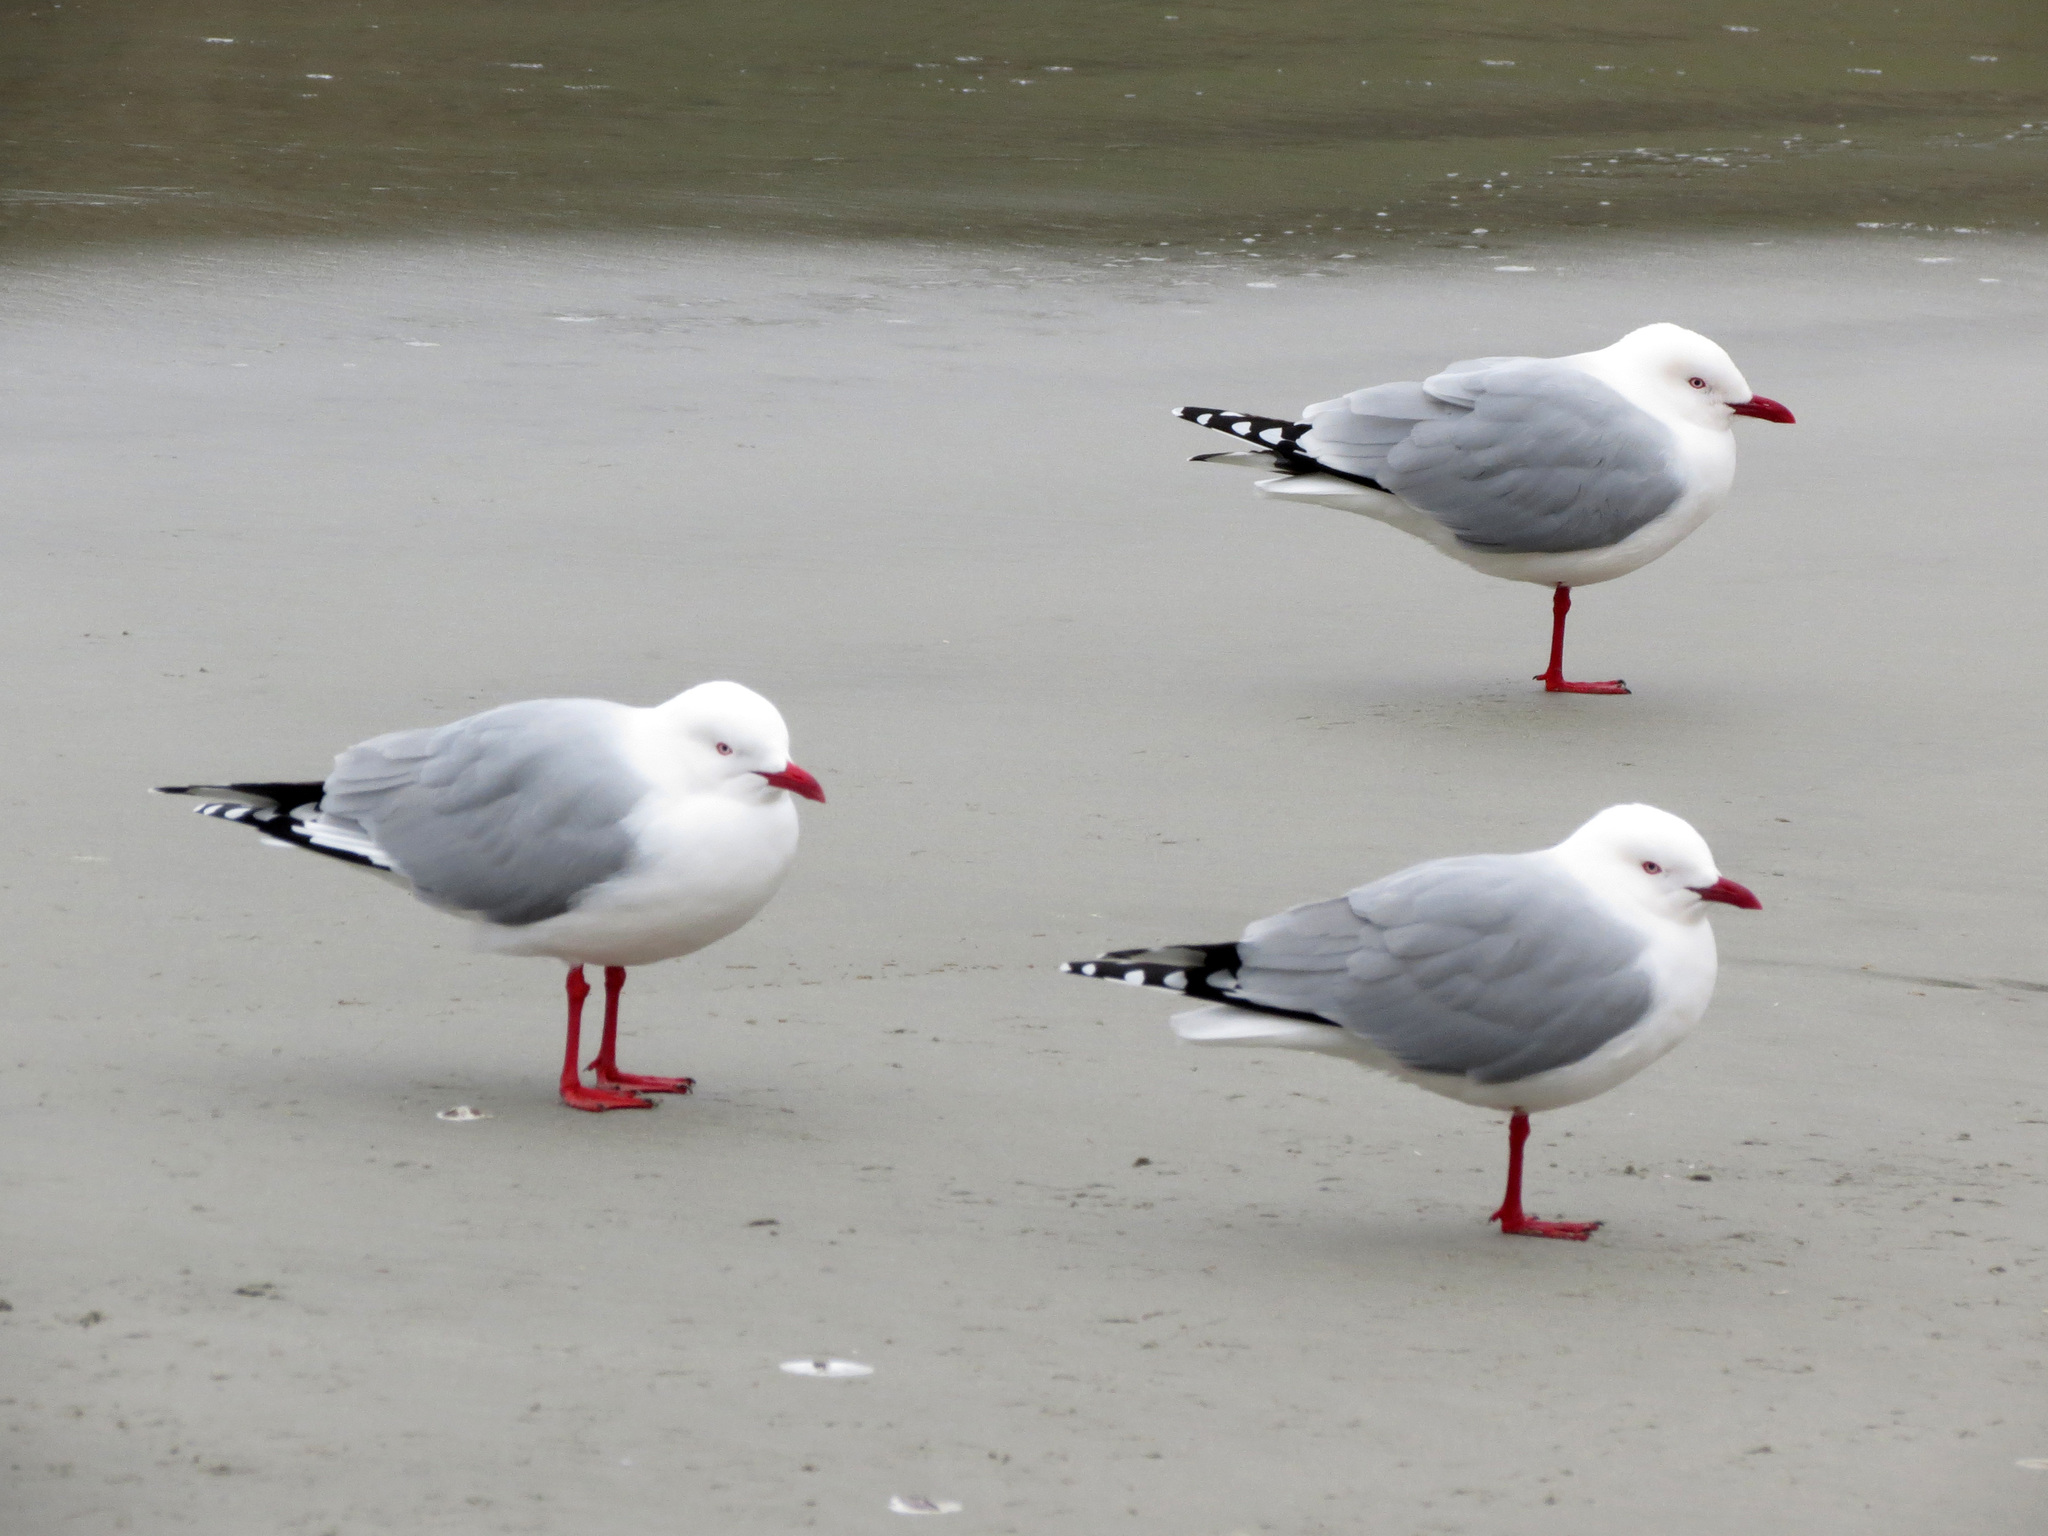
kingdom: Animalia
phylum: Chordata
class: Aves
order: Charadriiformes
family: Laridae
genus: Chroicocephalus
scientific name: Chroicocephalus novaehollandiae
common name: Silver gull
